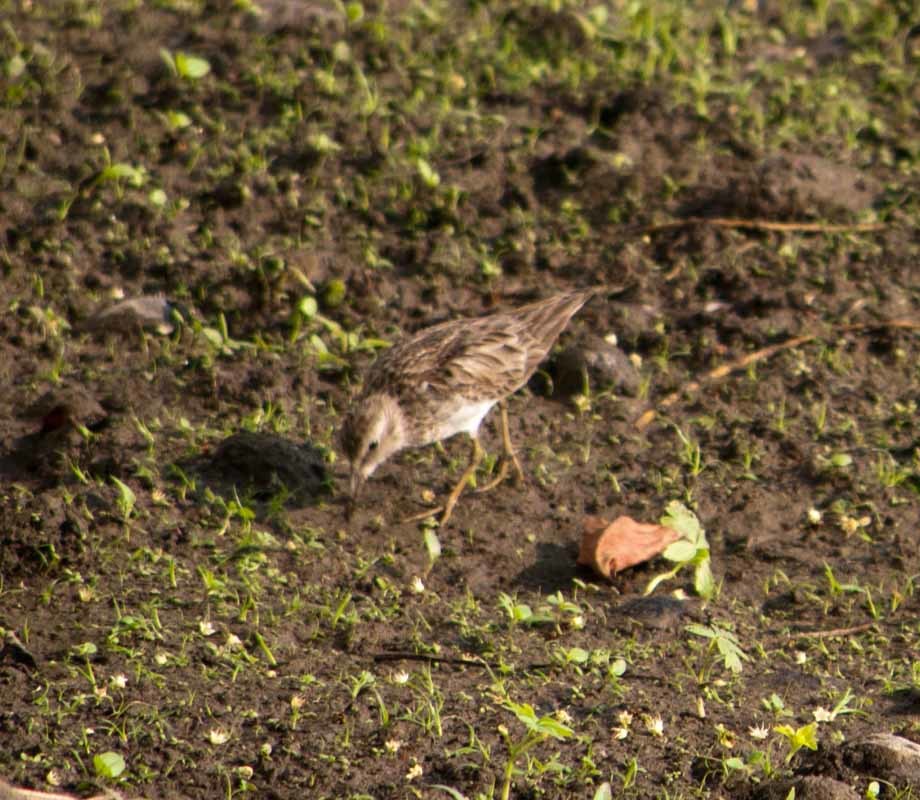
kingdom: Animalia
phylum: Chordata
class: Aves
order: Charadriiformes
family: Scolopacidae
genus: Calidris
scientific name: Calidris minutilla
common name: Least sandpiper
